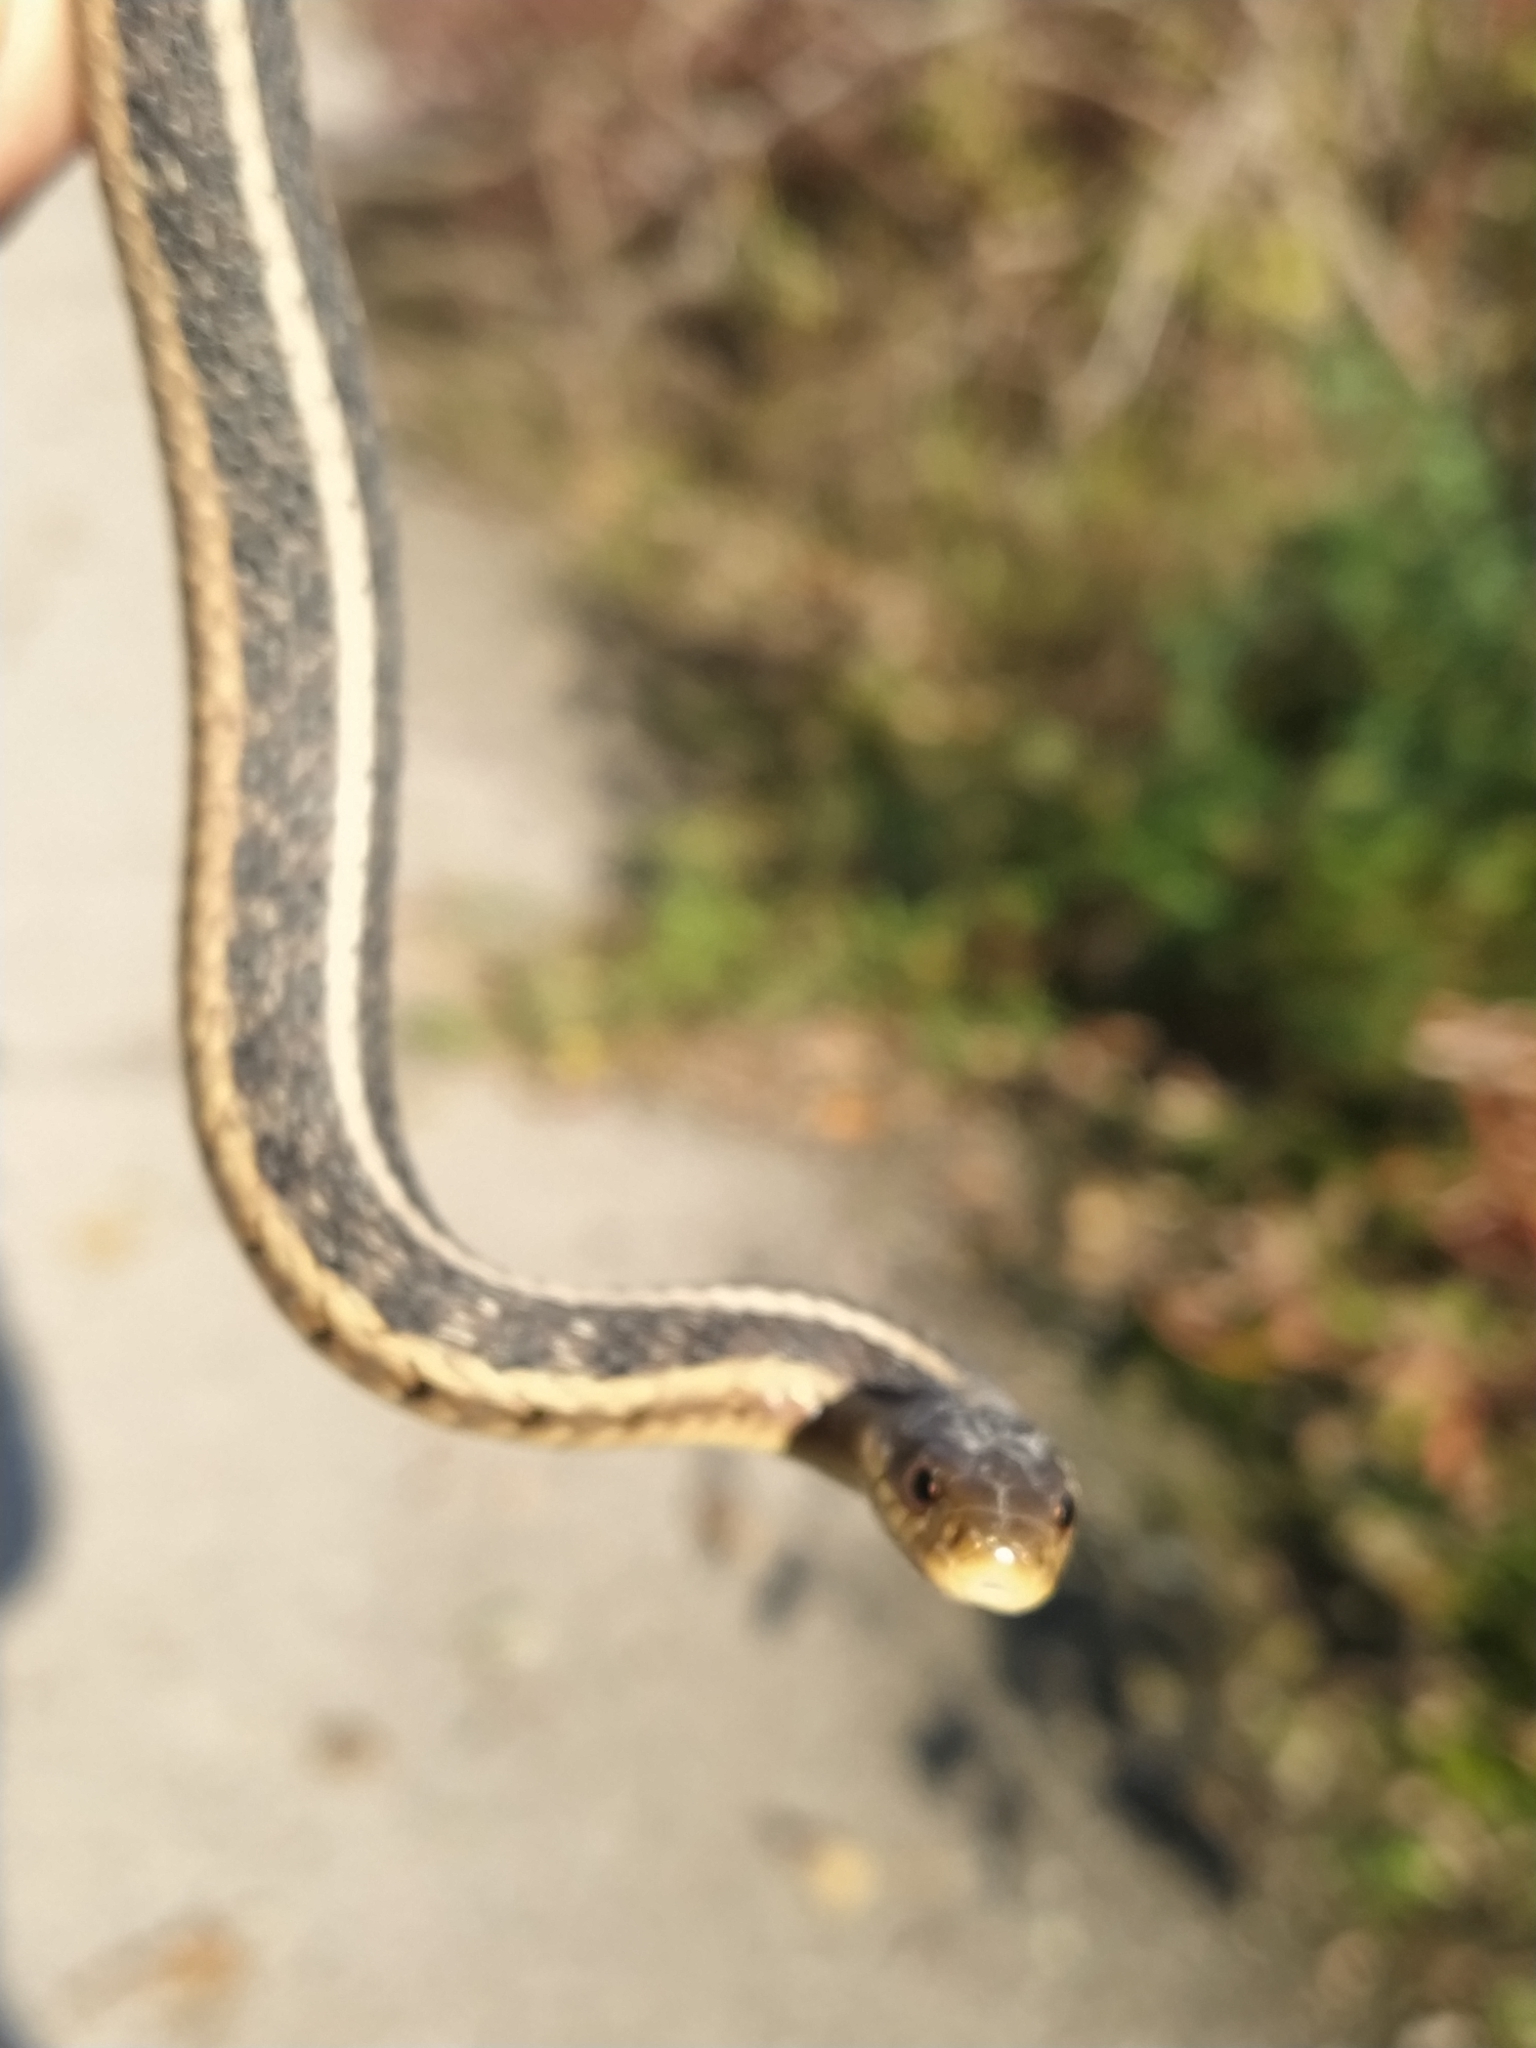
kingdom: Animalia
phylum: Chordata
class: Squamata
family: Colubridae
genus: Thamnophis
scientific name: Thamnophis sirtalis
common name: Common garter snake
